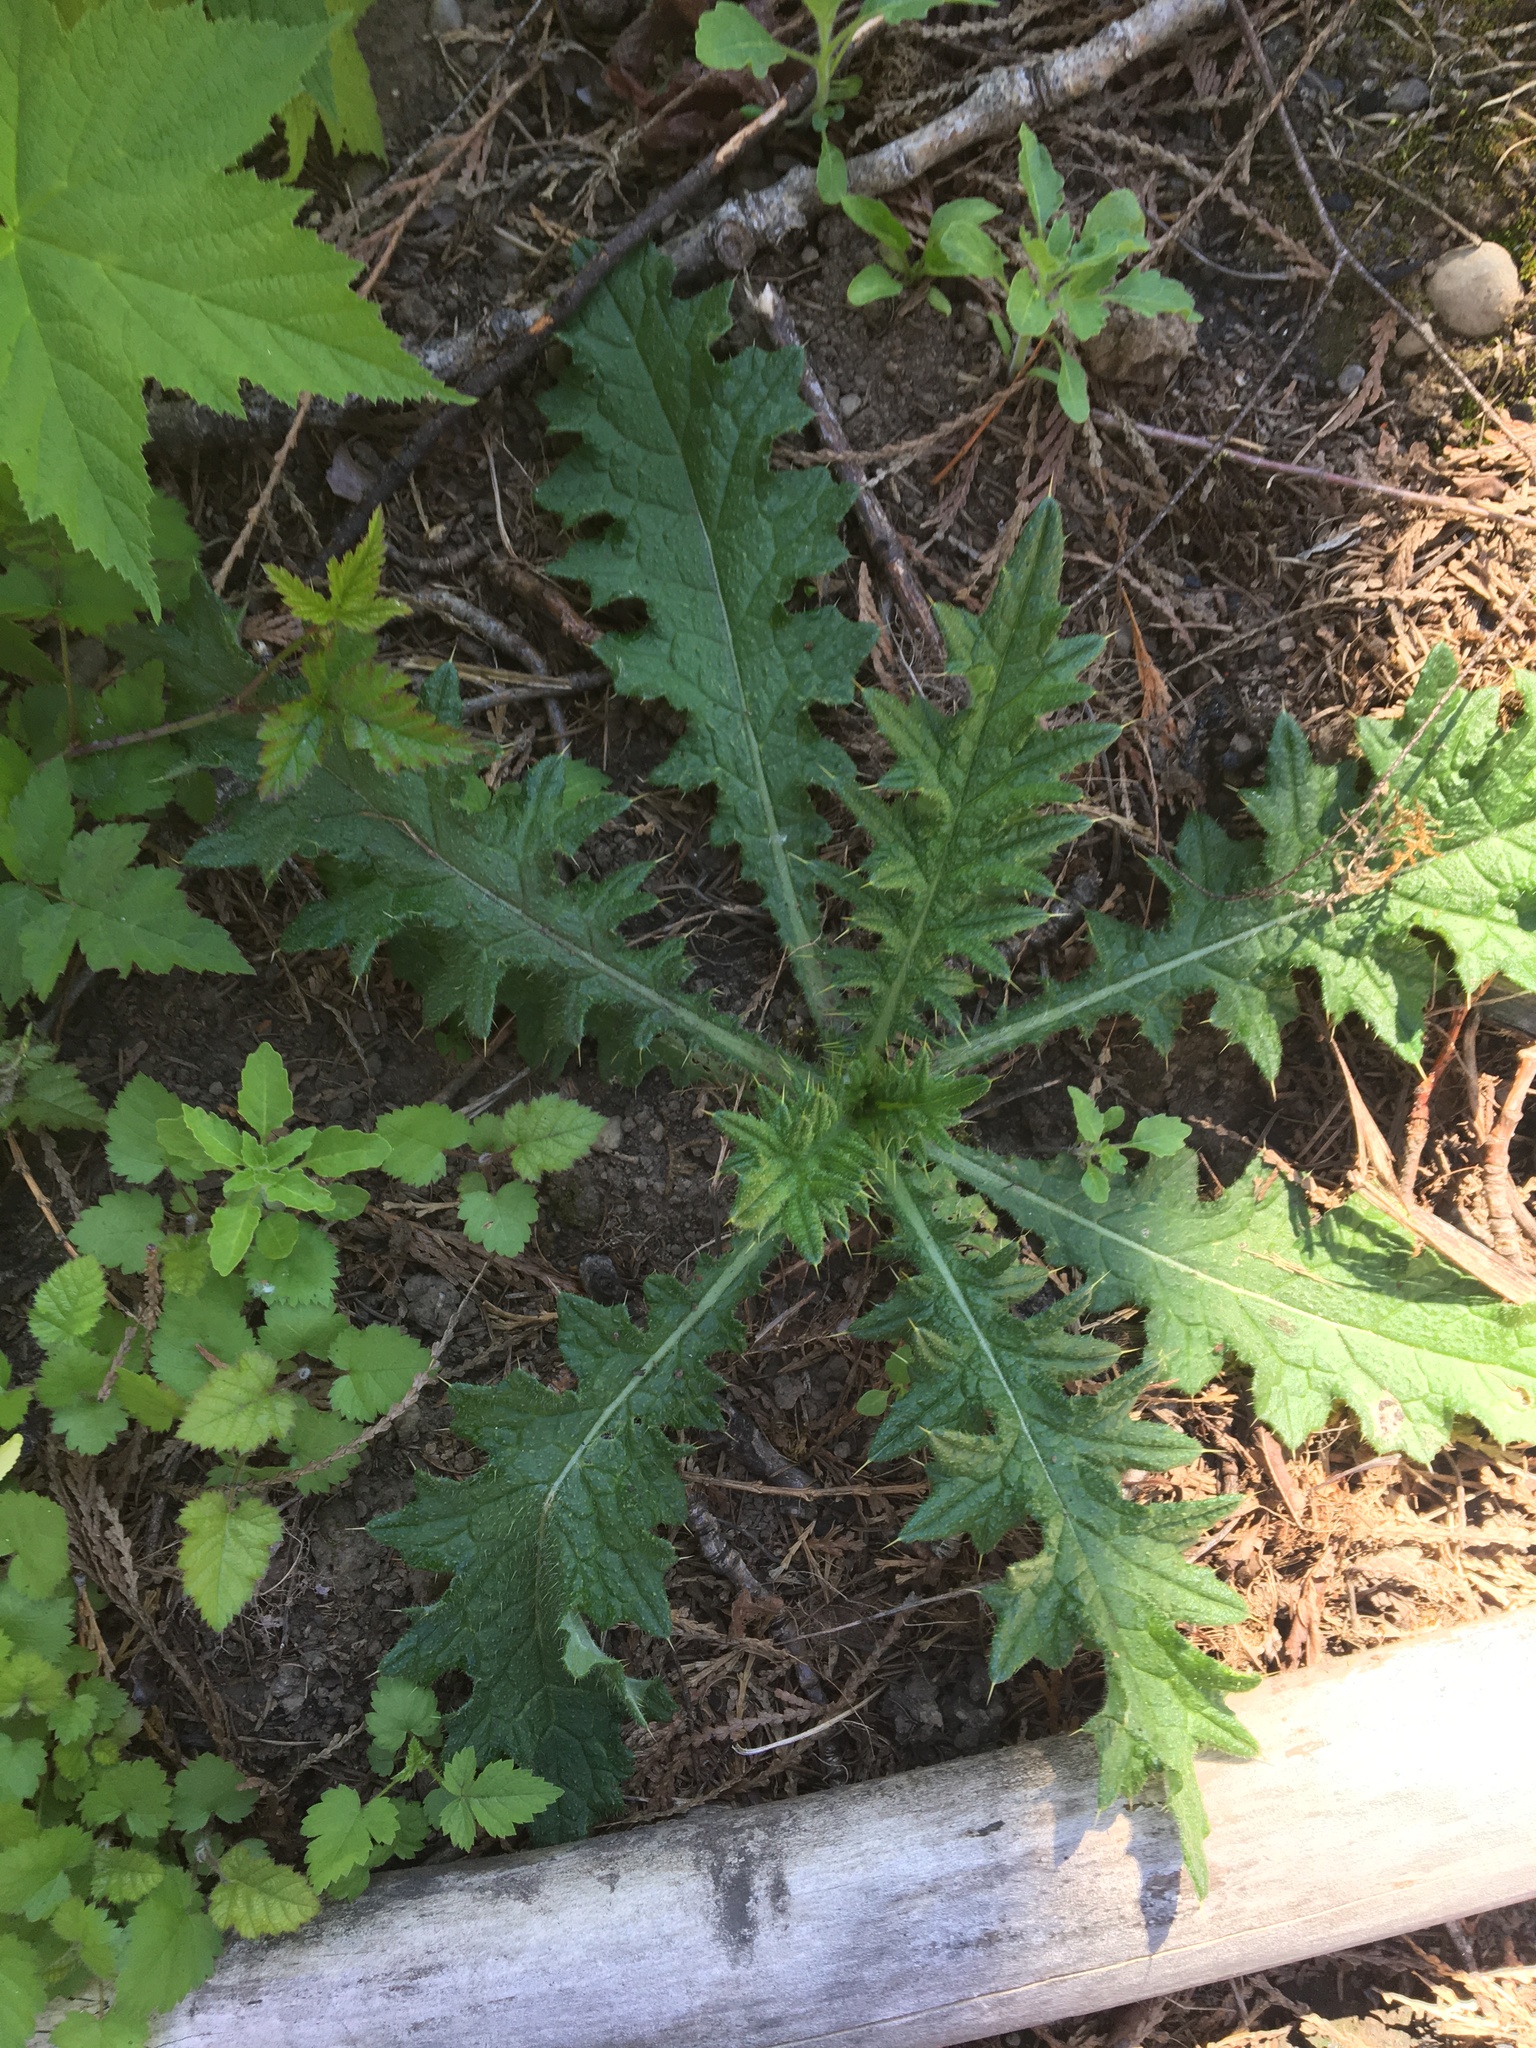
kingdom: Plantae
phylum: Tracheophyta
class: Magnoliopsida
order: Asterales
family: Asteraceae
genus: Cirsium
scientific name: Cirsium vulgare
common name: Bull thistle
